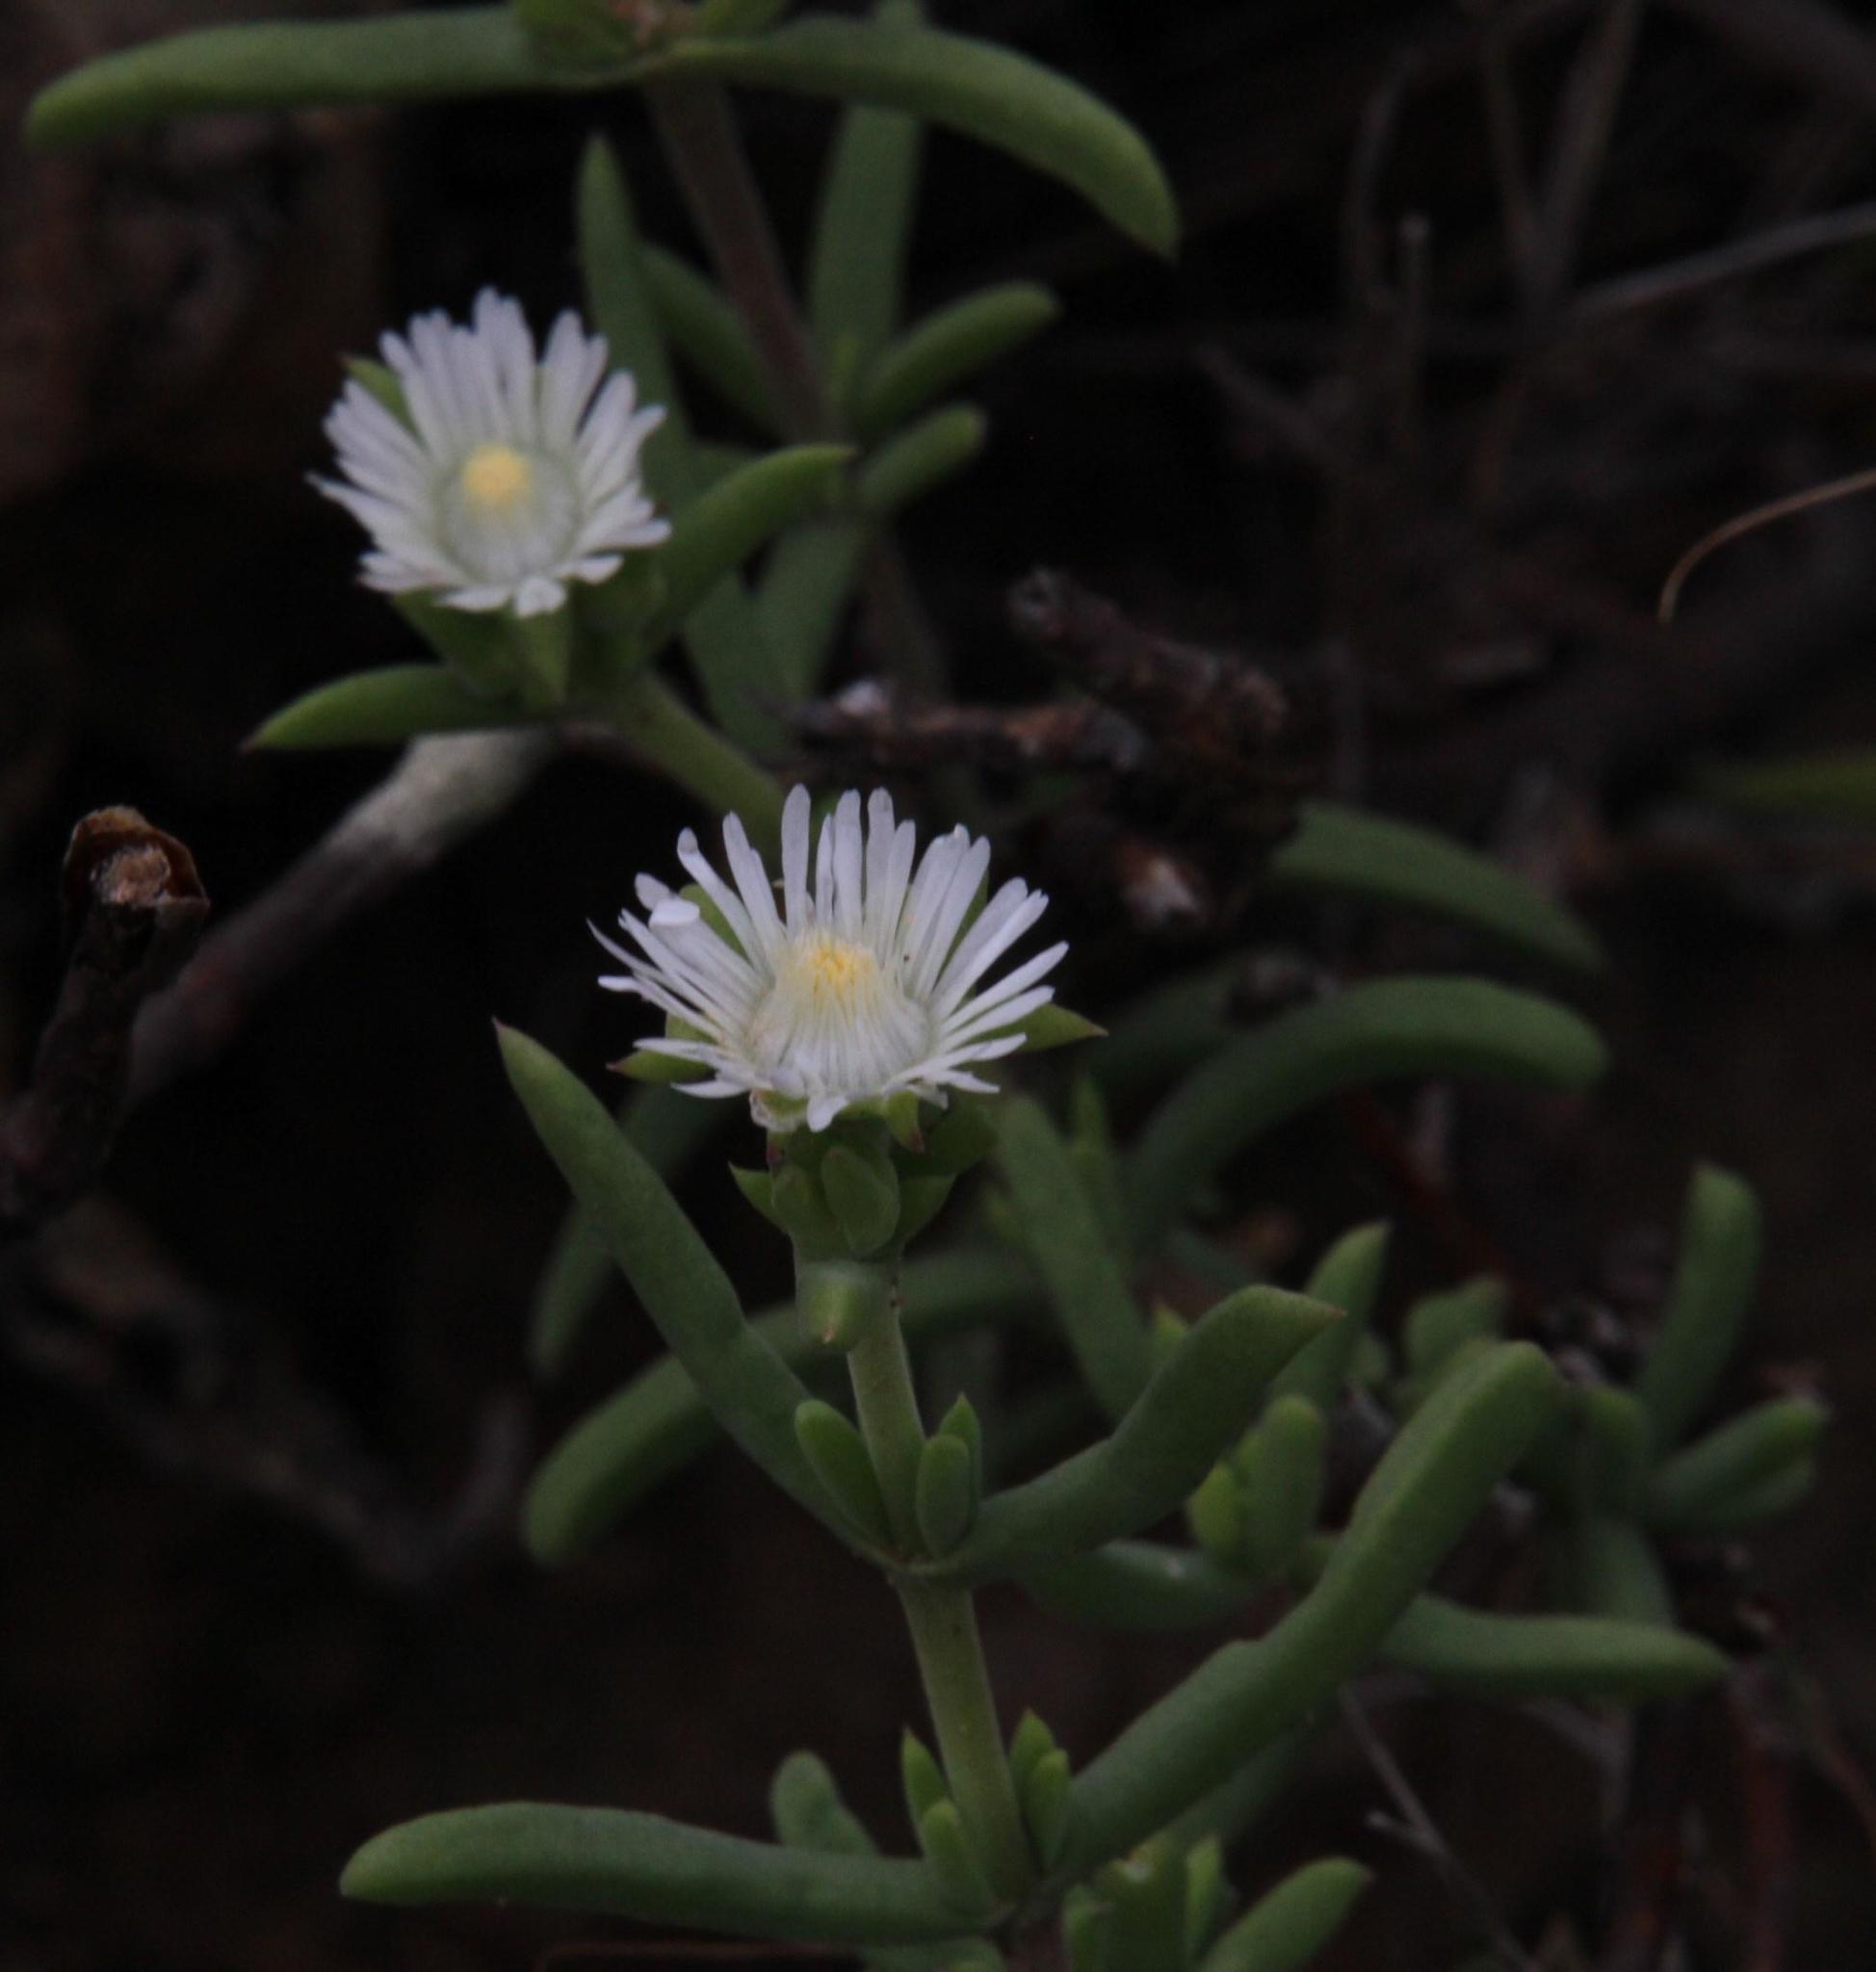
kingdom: Plantae
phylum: Tracheophyta
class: Magnoliopsida
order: Caryophyllales
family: Aizoaceae
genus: Delosperma
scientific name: Delosperma frutescens
